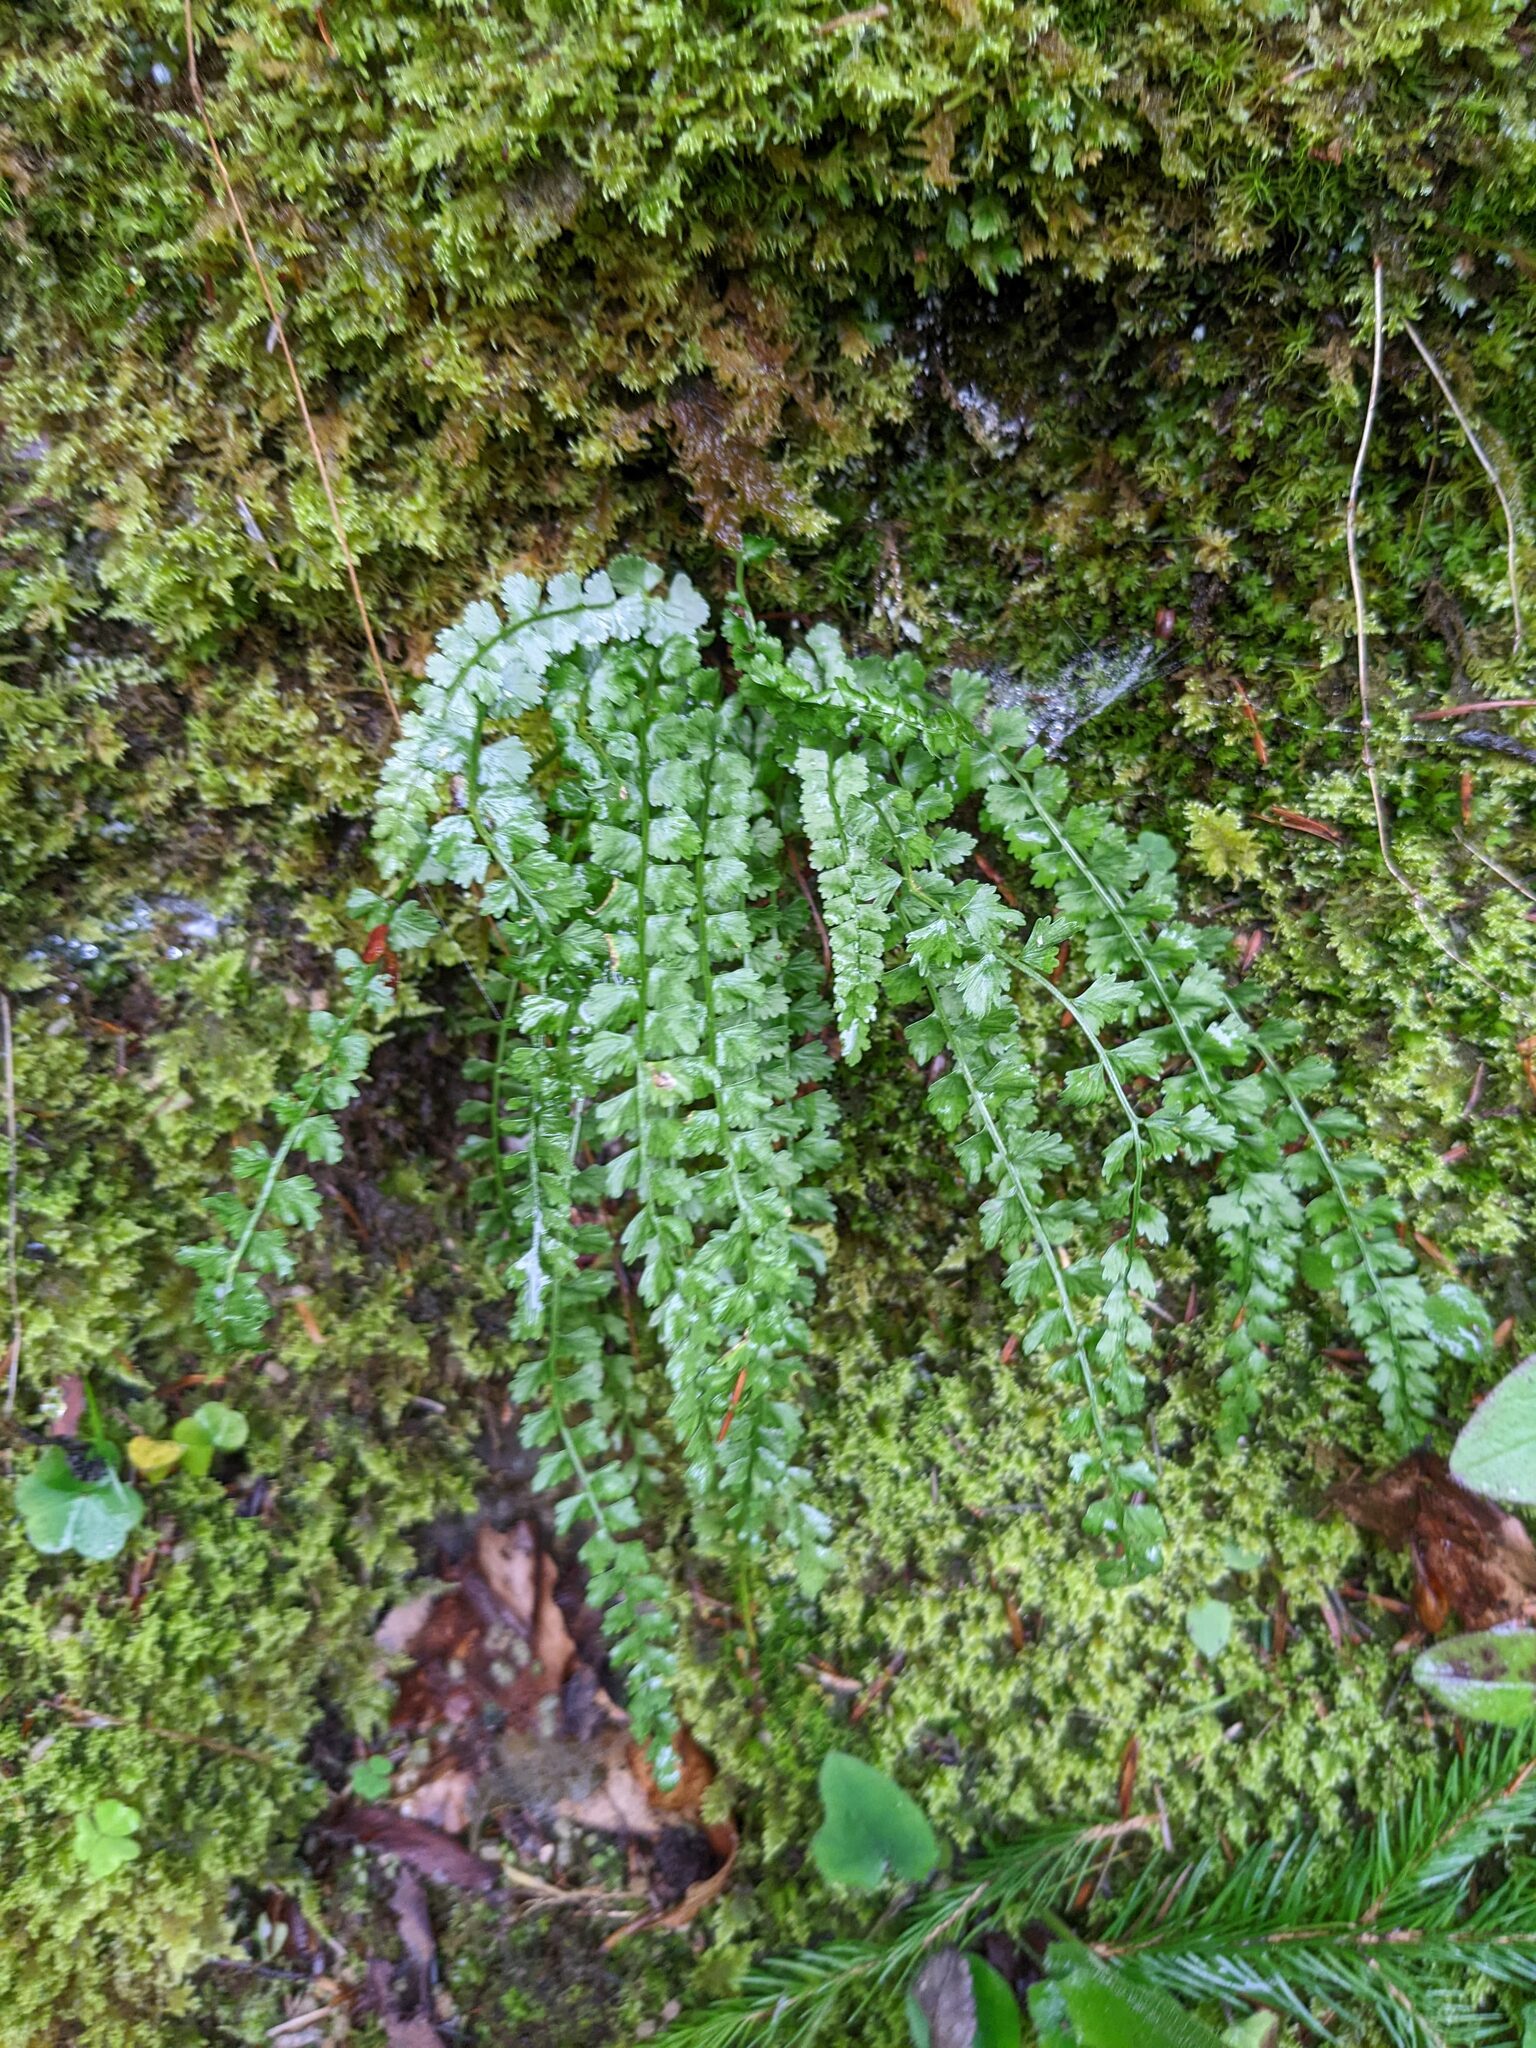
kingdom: Plantae
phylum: Tracheophyta
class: Polypodiopsida
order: Polypodiales
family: Aspleniaceae
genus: Asplenium
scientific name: Asplenium viride
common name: Green spleenwort
